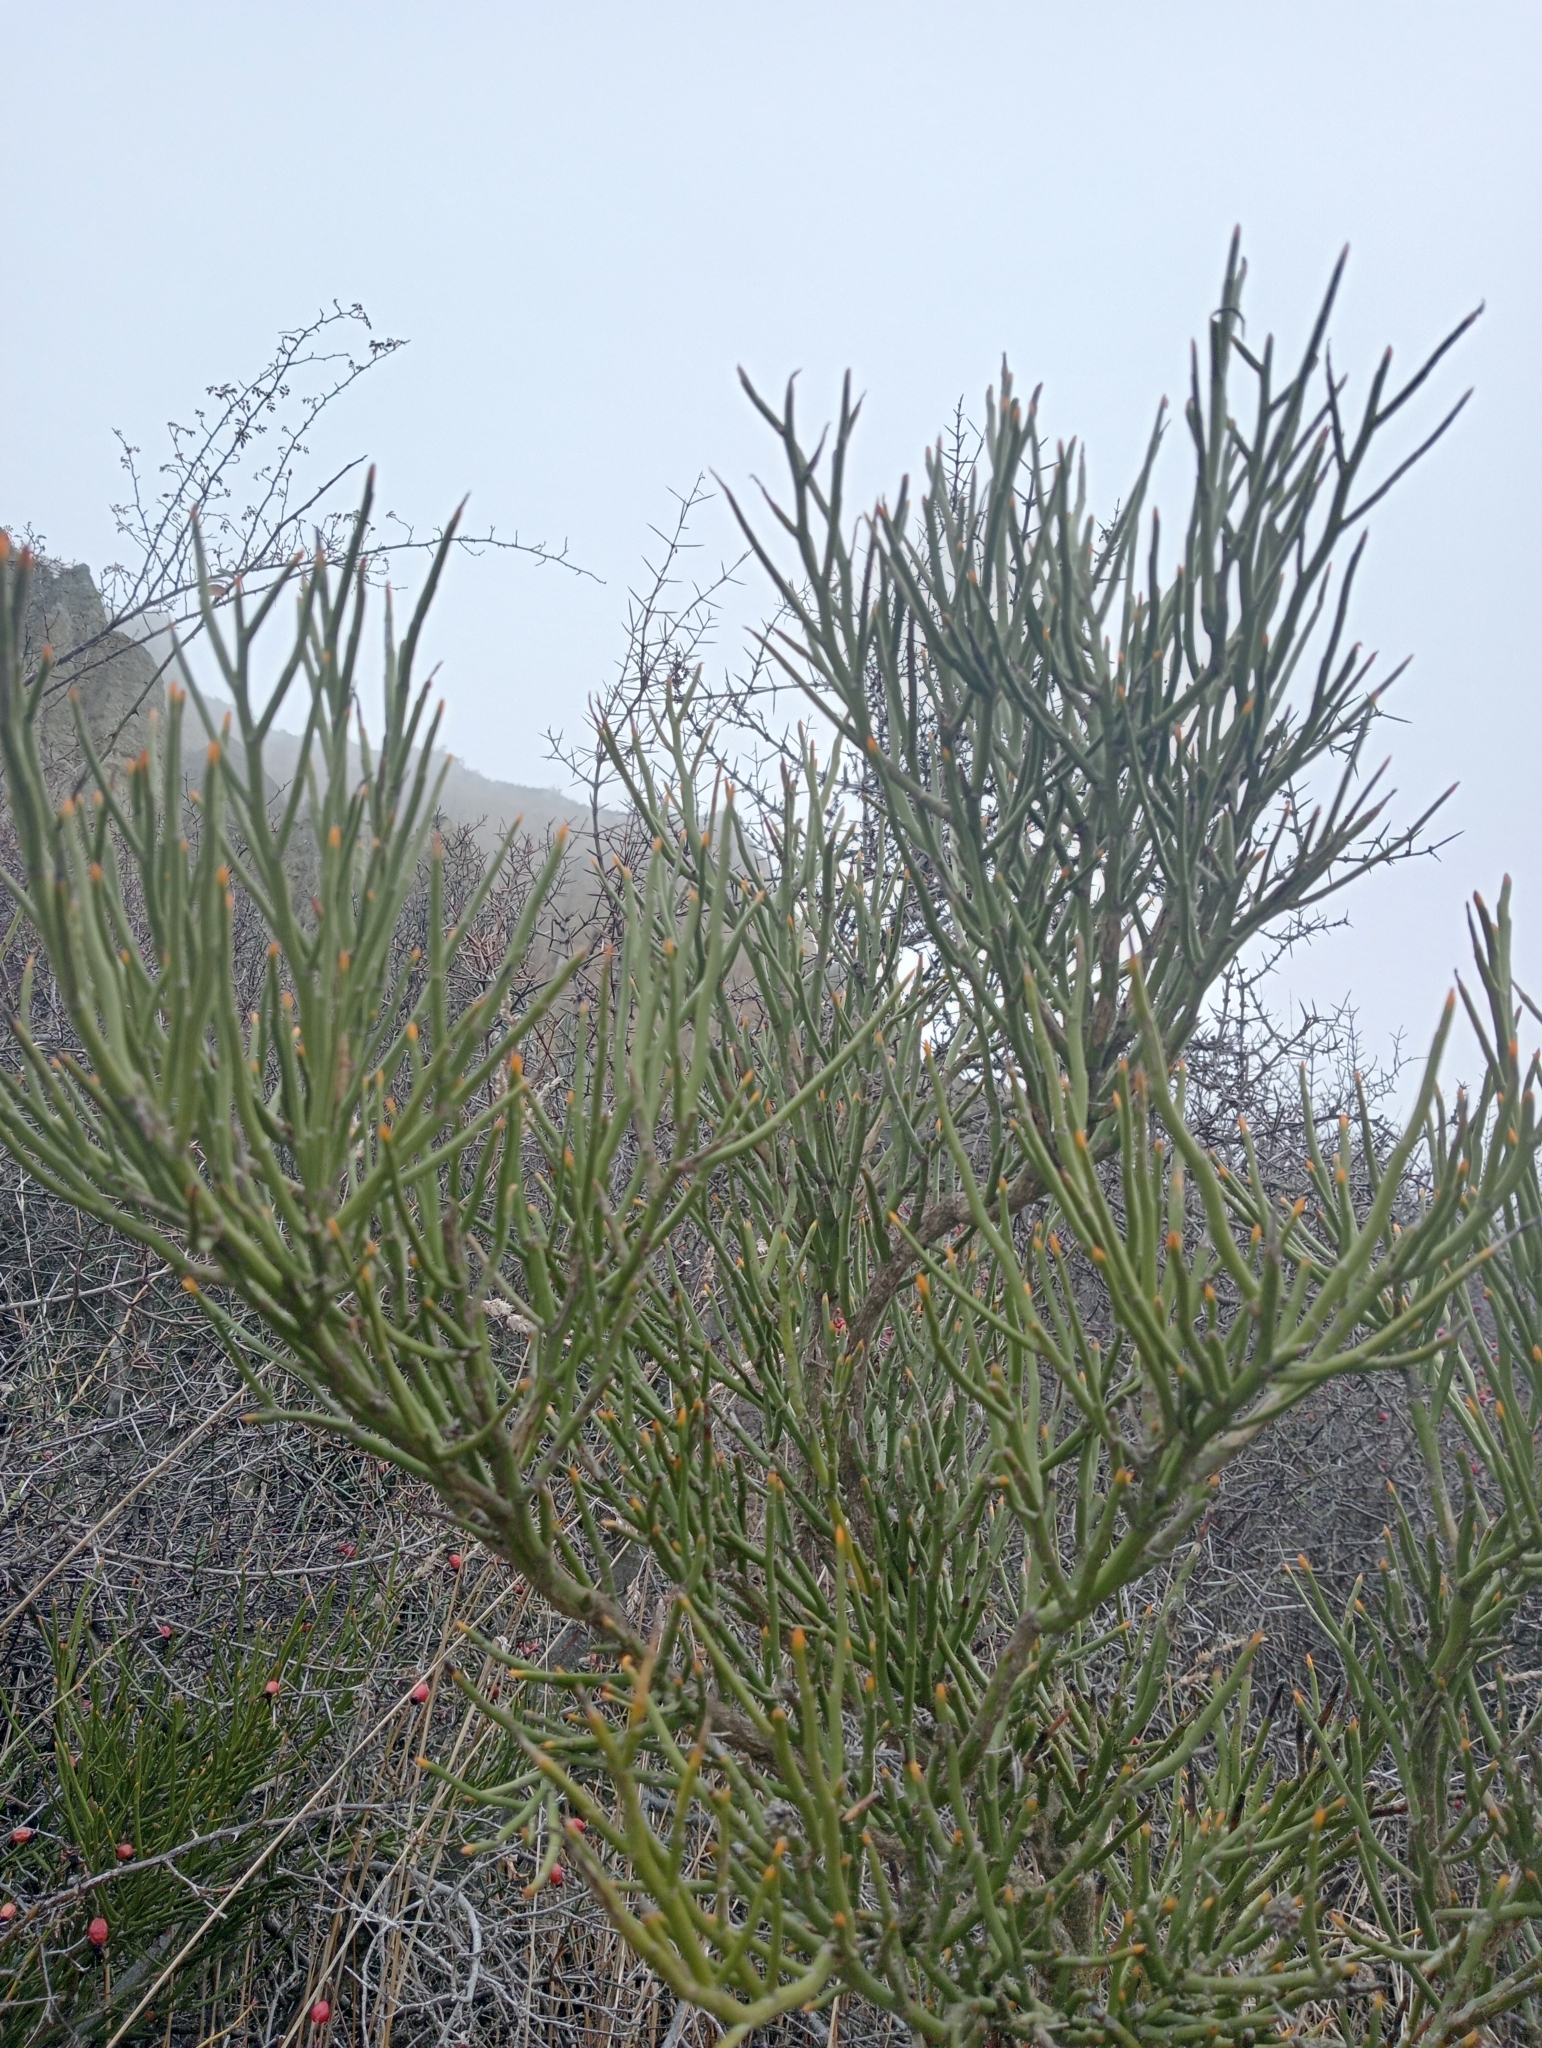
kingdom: Plantae
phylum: Tracheophyta
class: Magnoliopsida
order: Fabales
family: Fabaceae
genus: Carmichaelia
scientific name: Carmichaelia petriei
